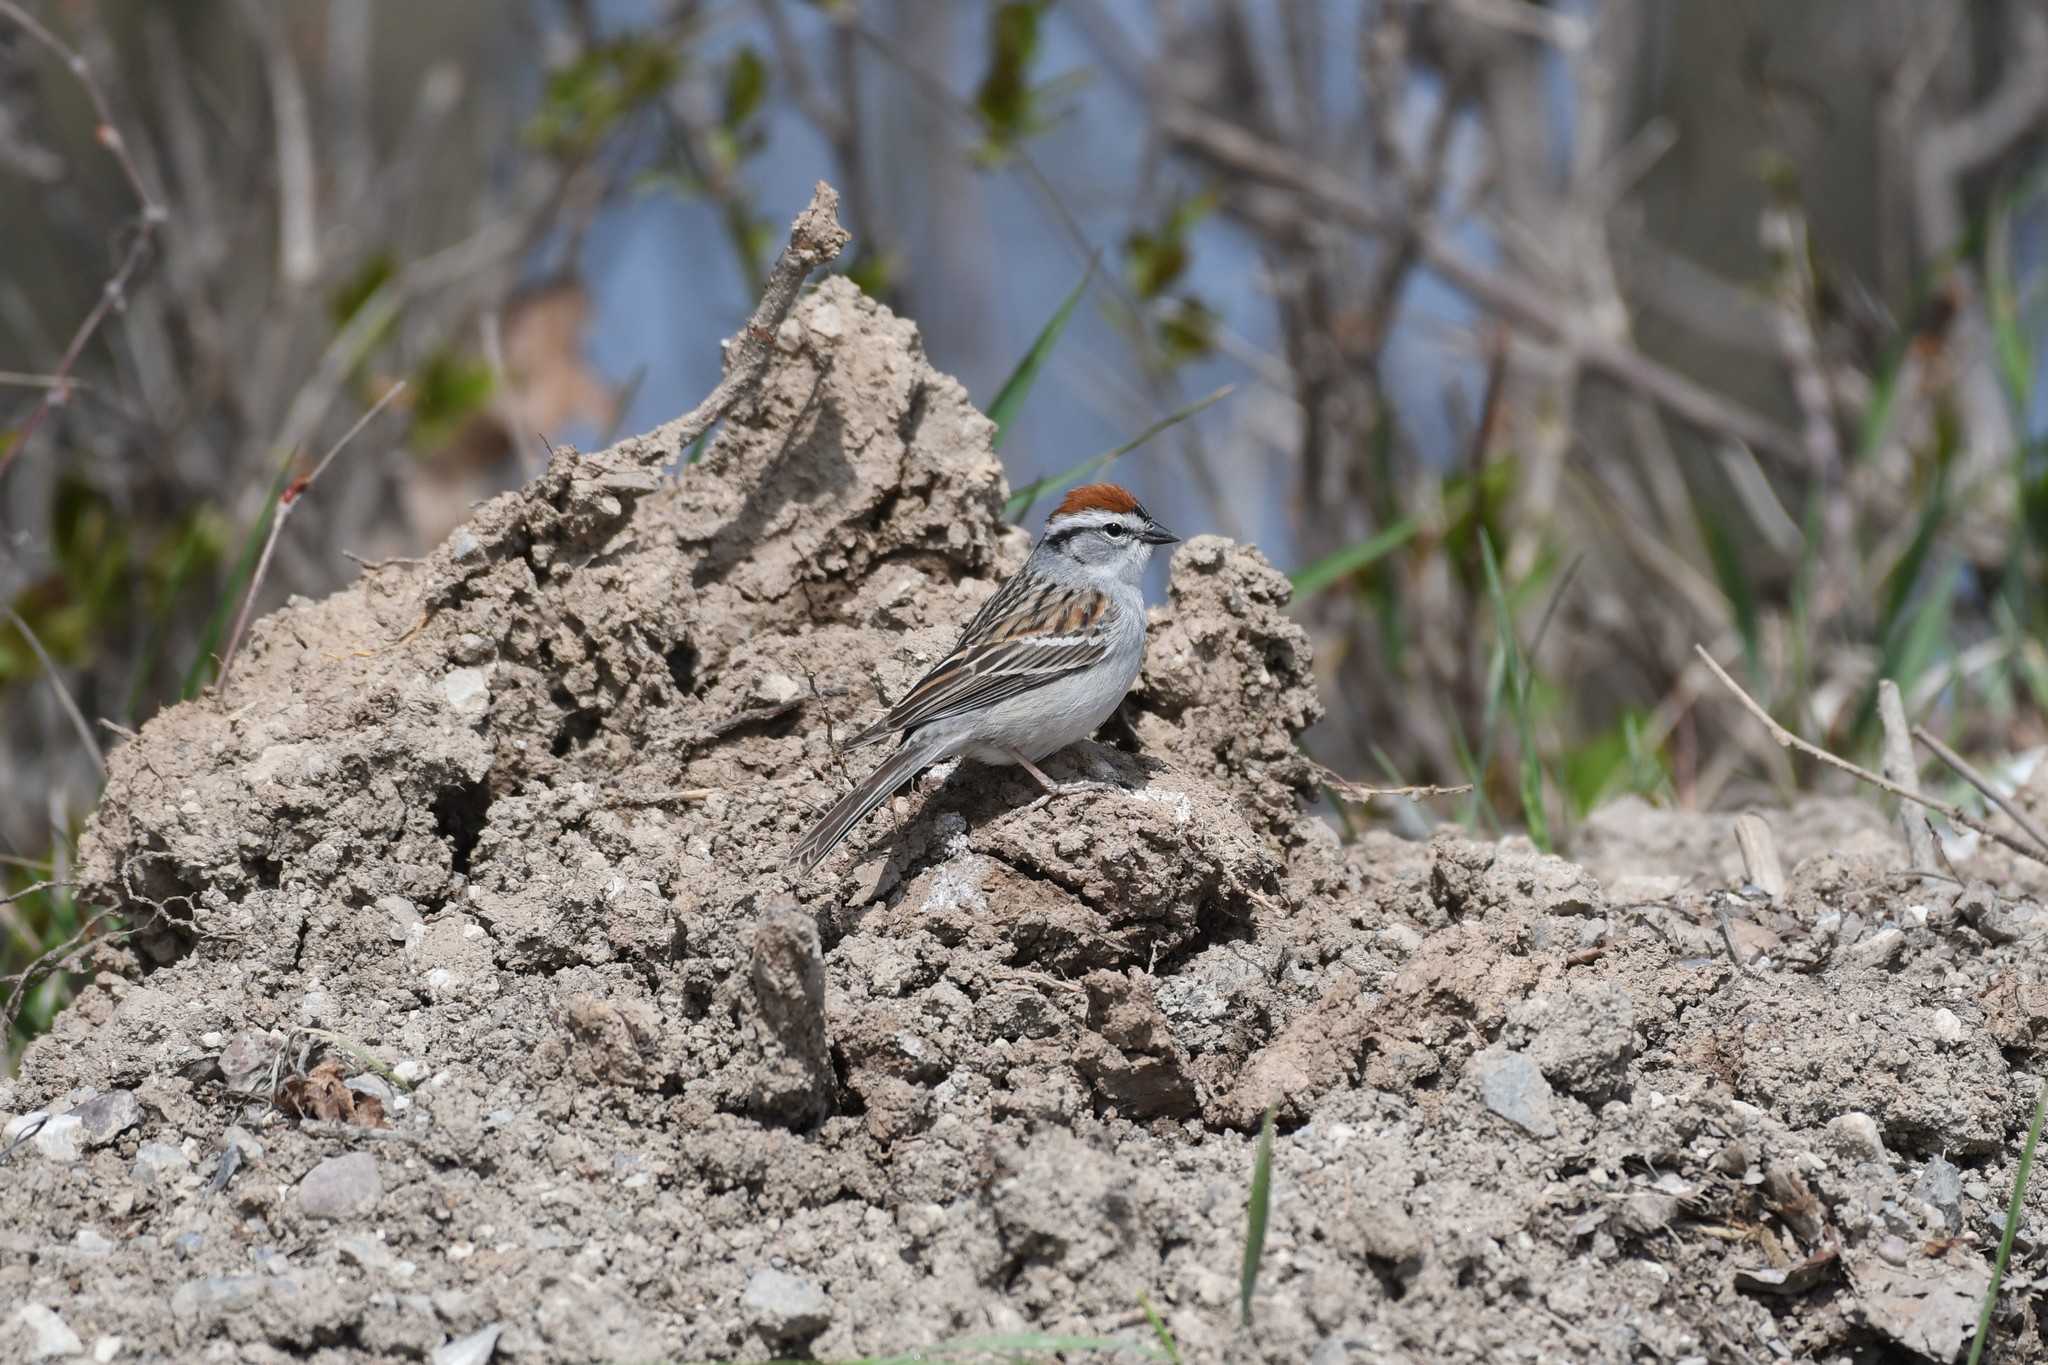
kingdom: Animalia
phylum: Chordata
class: Aves
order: Passeriformes
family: Passerellidae
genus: Spizella
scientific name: Spizella passerina
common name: Chipping sparrow
